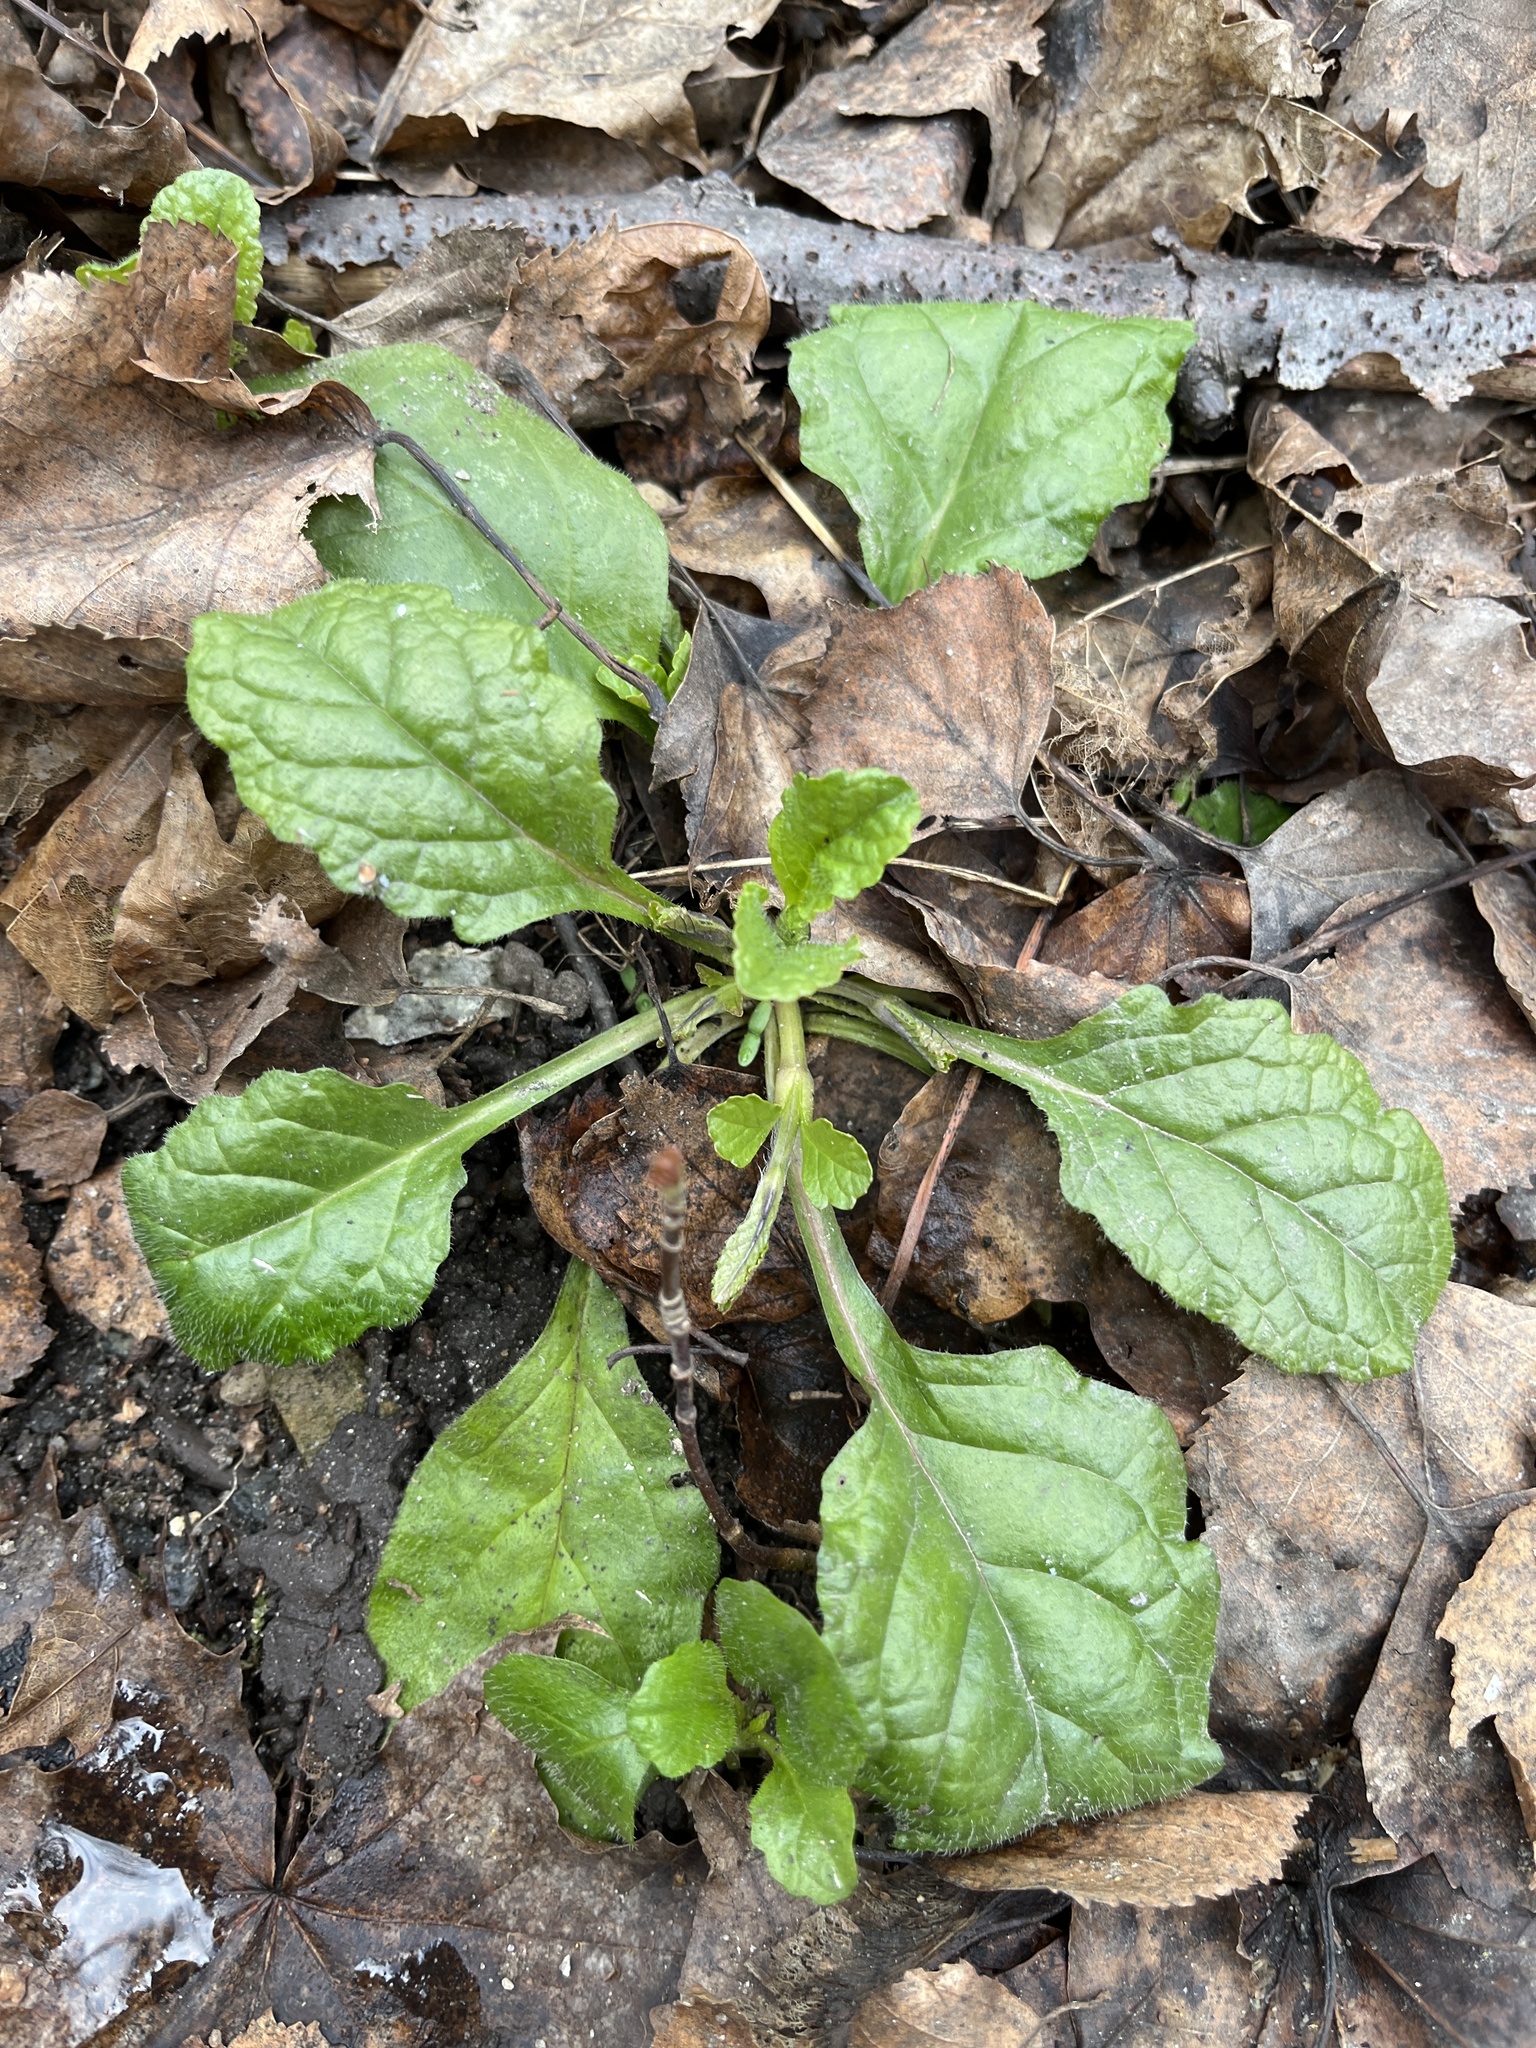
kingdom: Plantae
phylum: Tracheophyta
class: Magnoliopsida
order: Lamiales
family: Lamiaceae
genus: Ajuga
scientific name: Ajuga reptans
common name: Bugle
